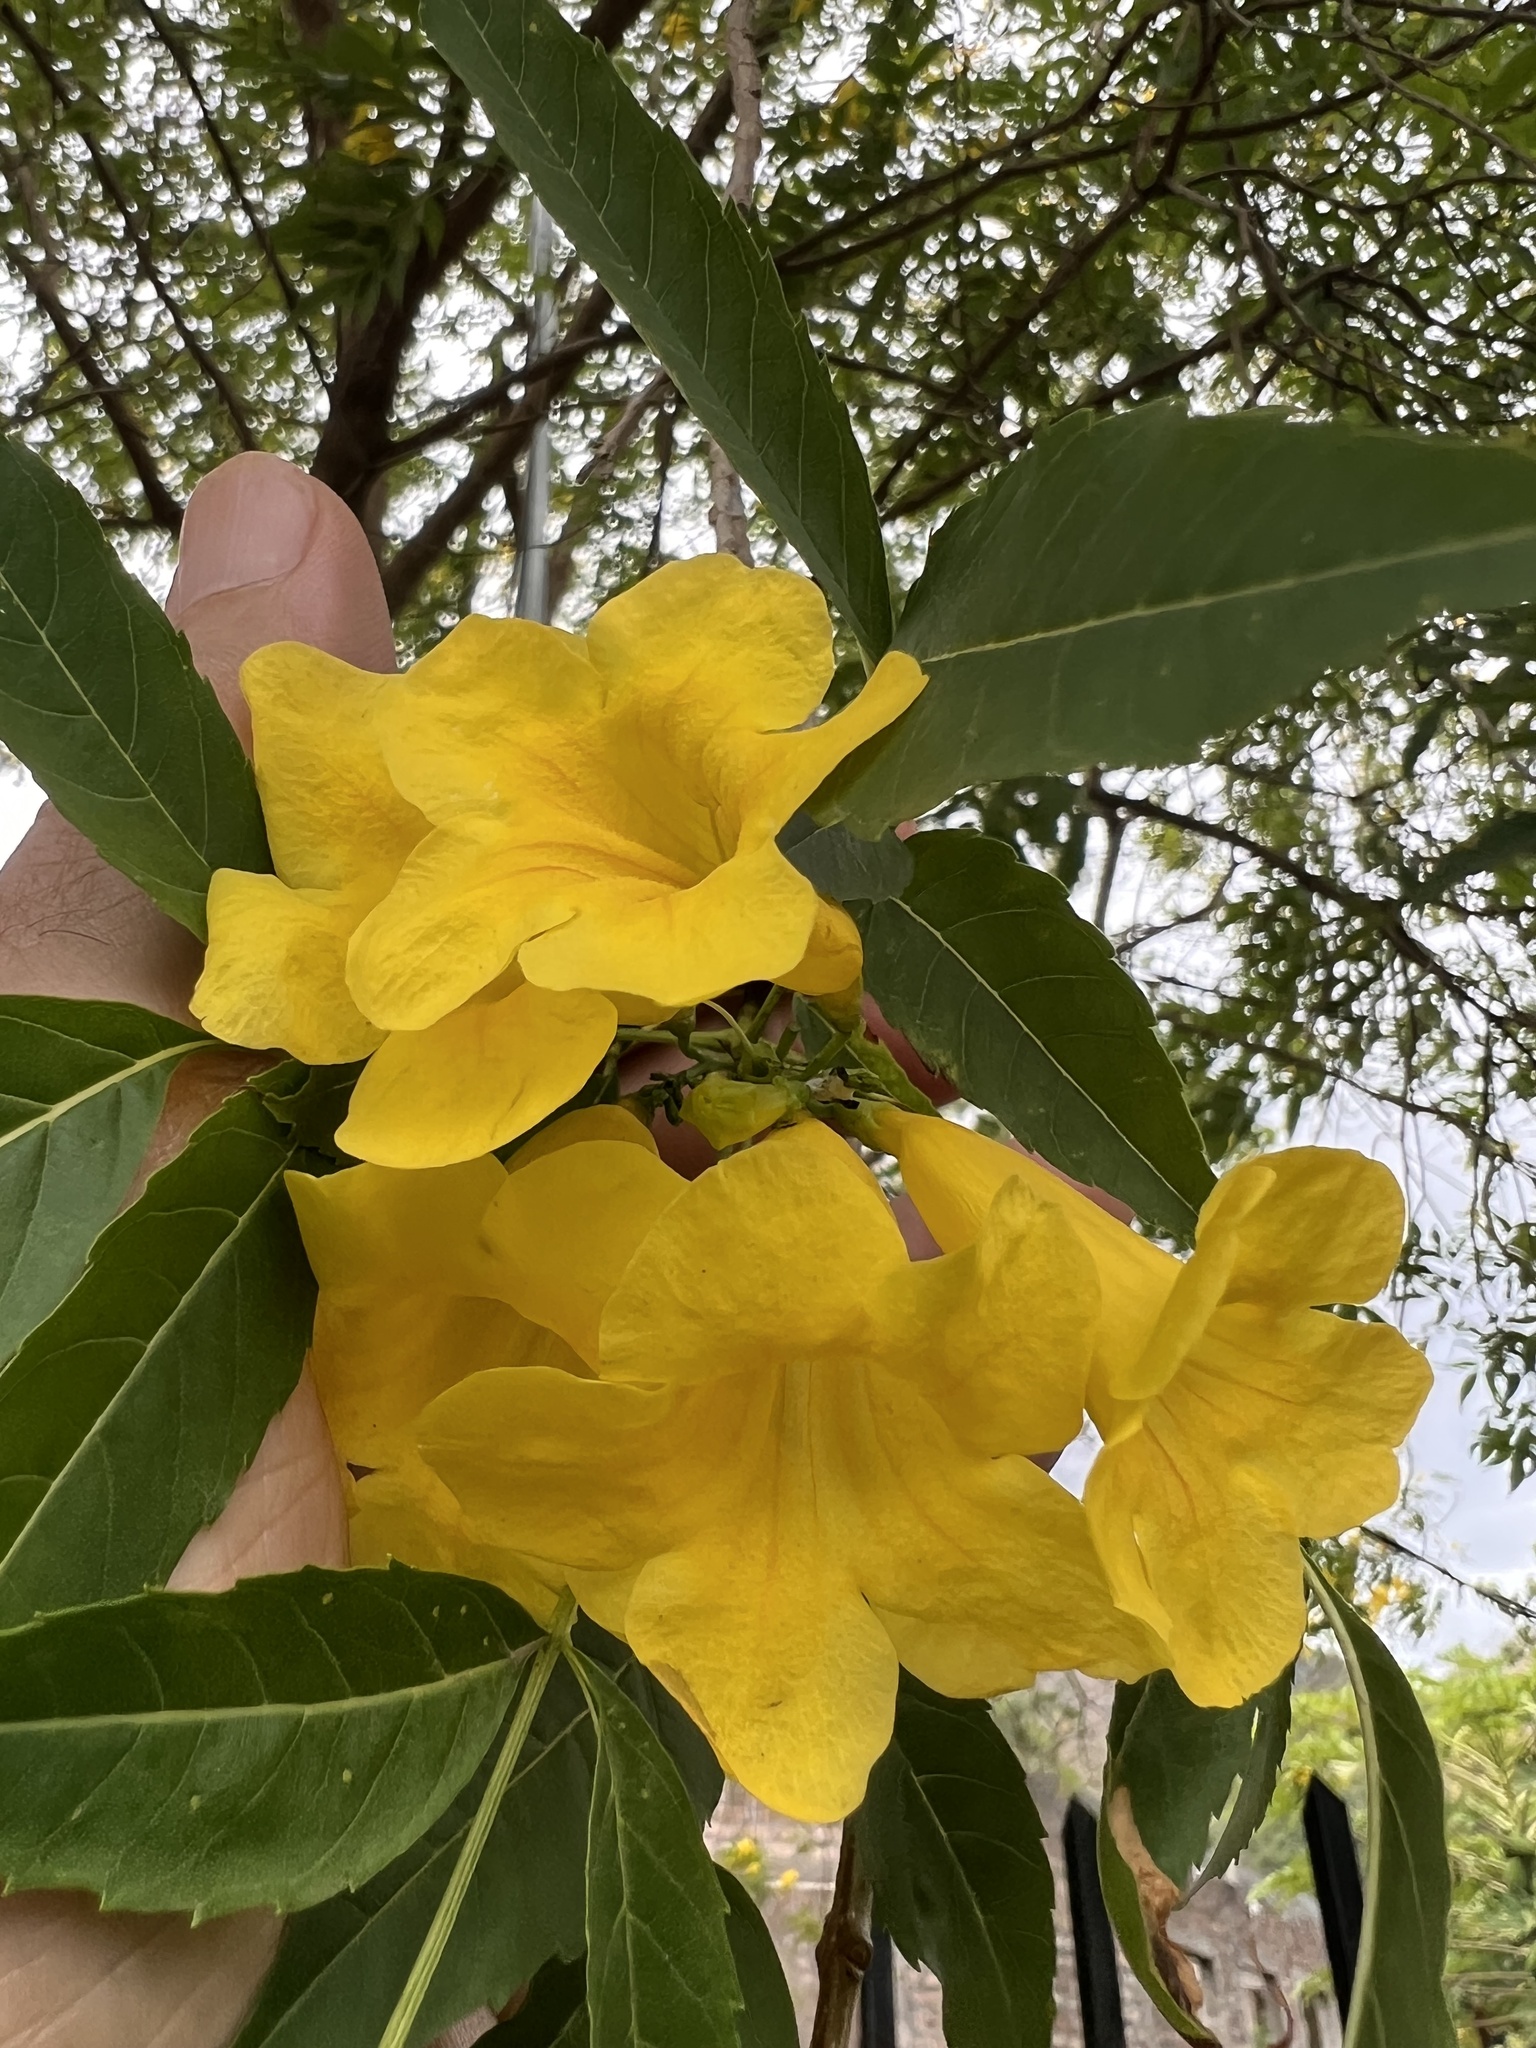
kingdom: Plantae
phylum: Tracheophyta
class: Magnoliopsida
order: Lamiales
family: Bignoniaceae
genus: Tecoma
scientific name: Tecoma stans
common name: Yellow trumpetbush
